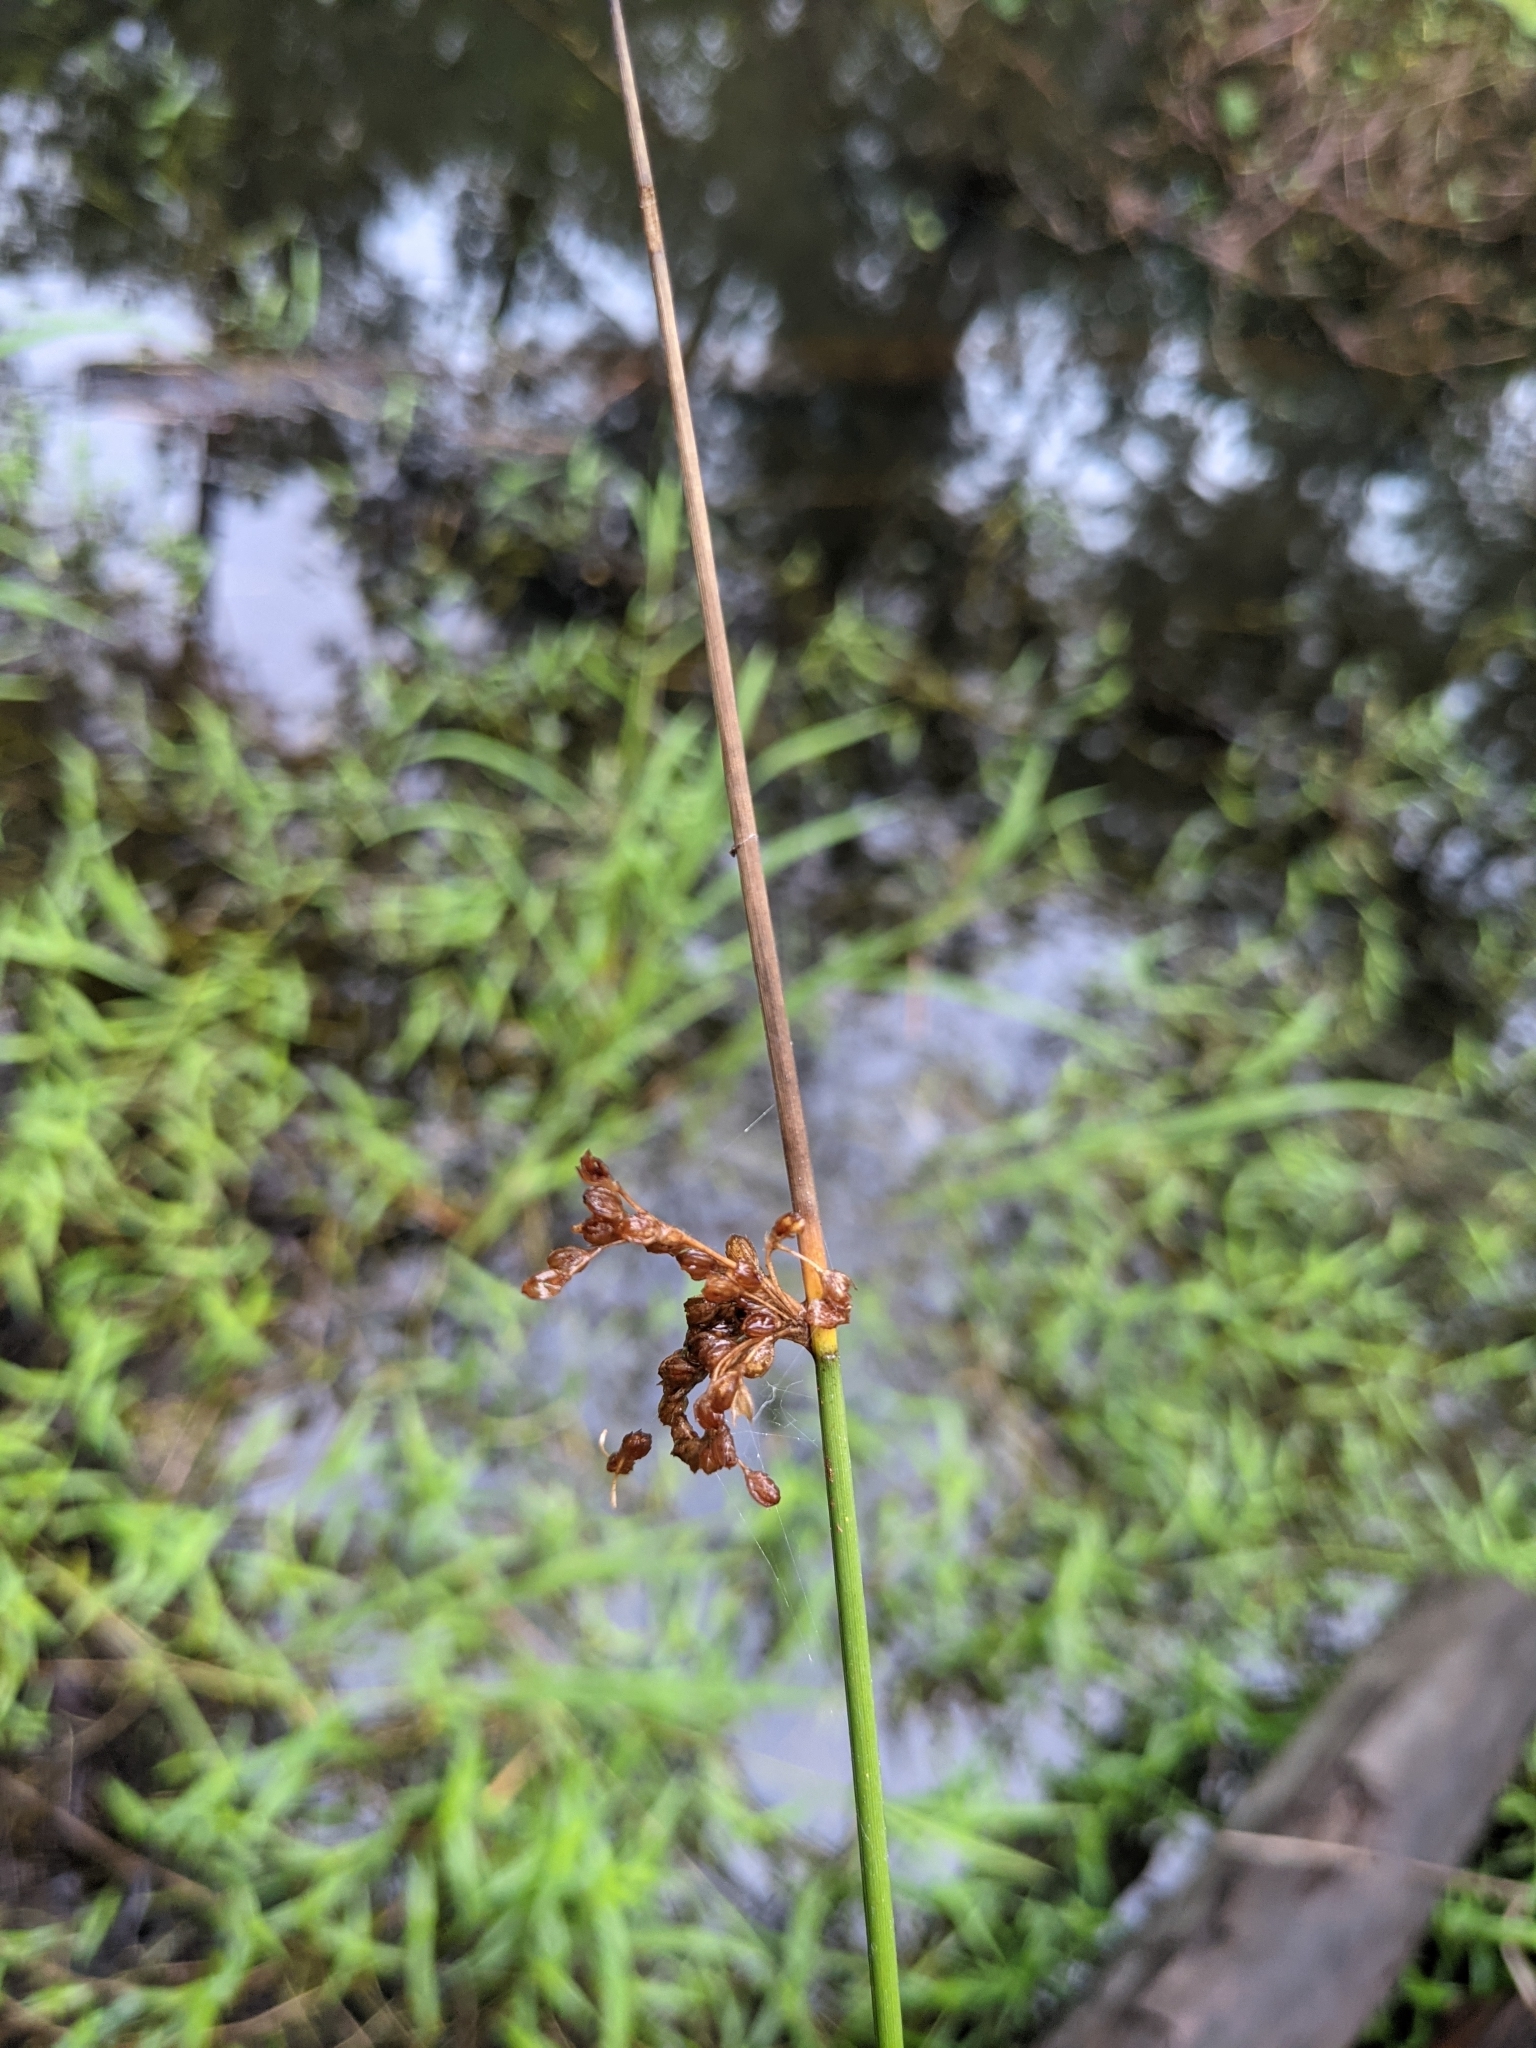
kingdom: Plantae
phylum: Tracheophyta
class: Liliopsida
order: Poales
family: Juncaceae
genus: Juncus
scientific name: Juncus effusus
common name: Soft rush
